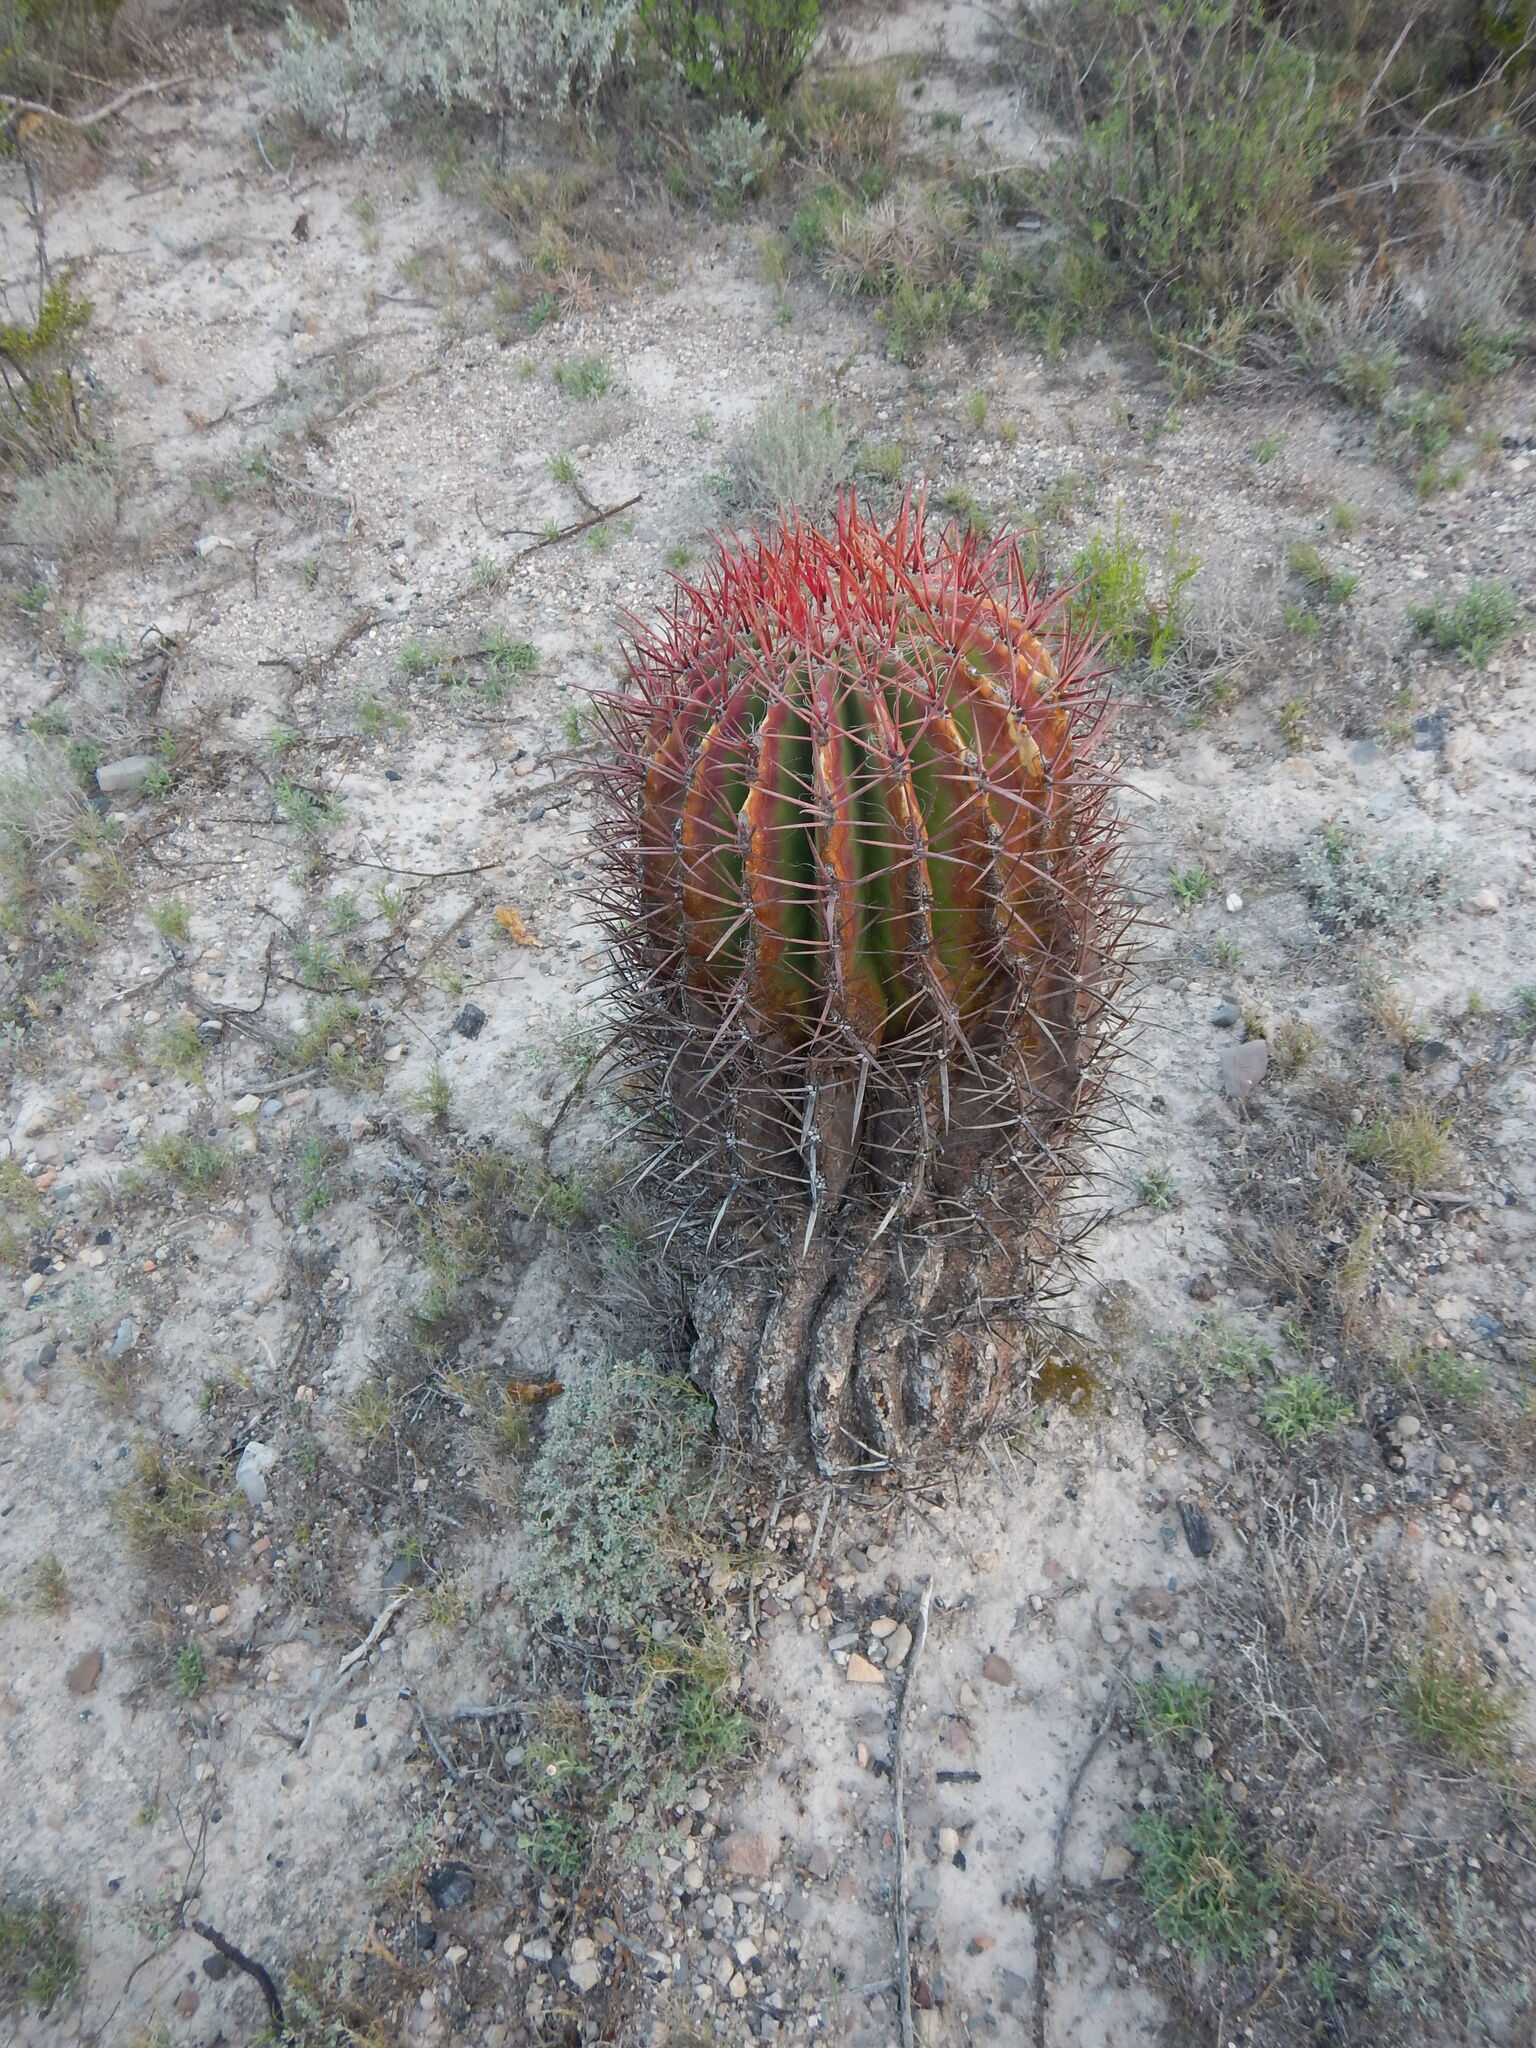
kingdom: Plantae
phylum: Tracheophyta
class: Magnoliopsida
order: Caryophyllales
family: Cactaceae
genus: Ferocactus
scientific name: Ferocactus pilosus
